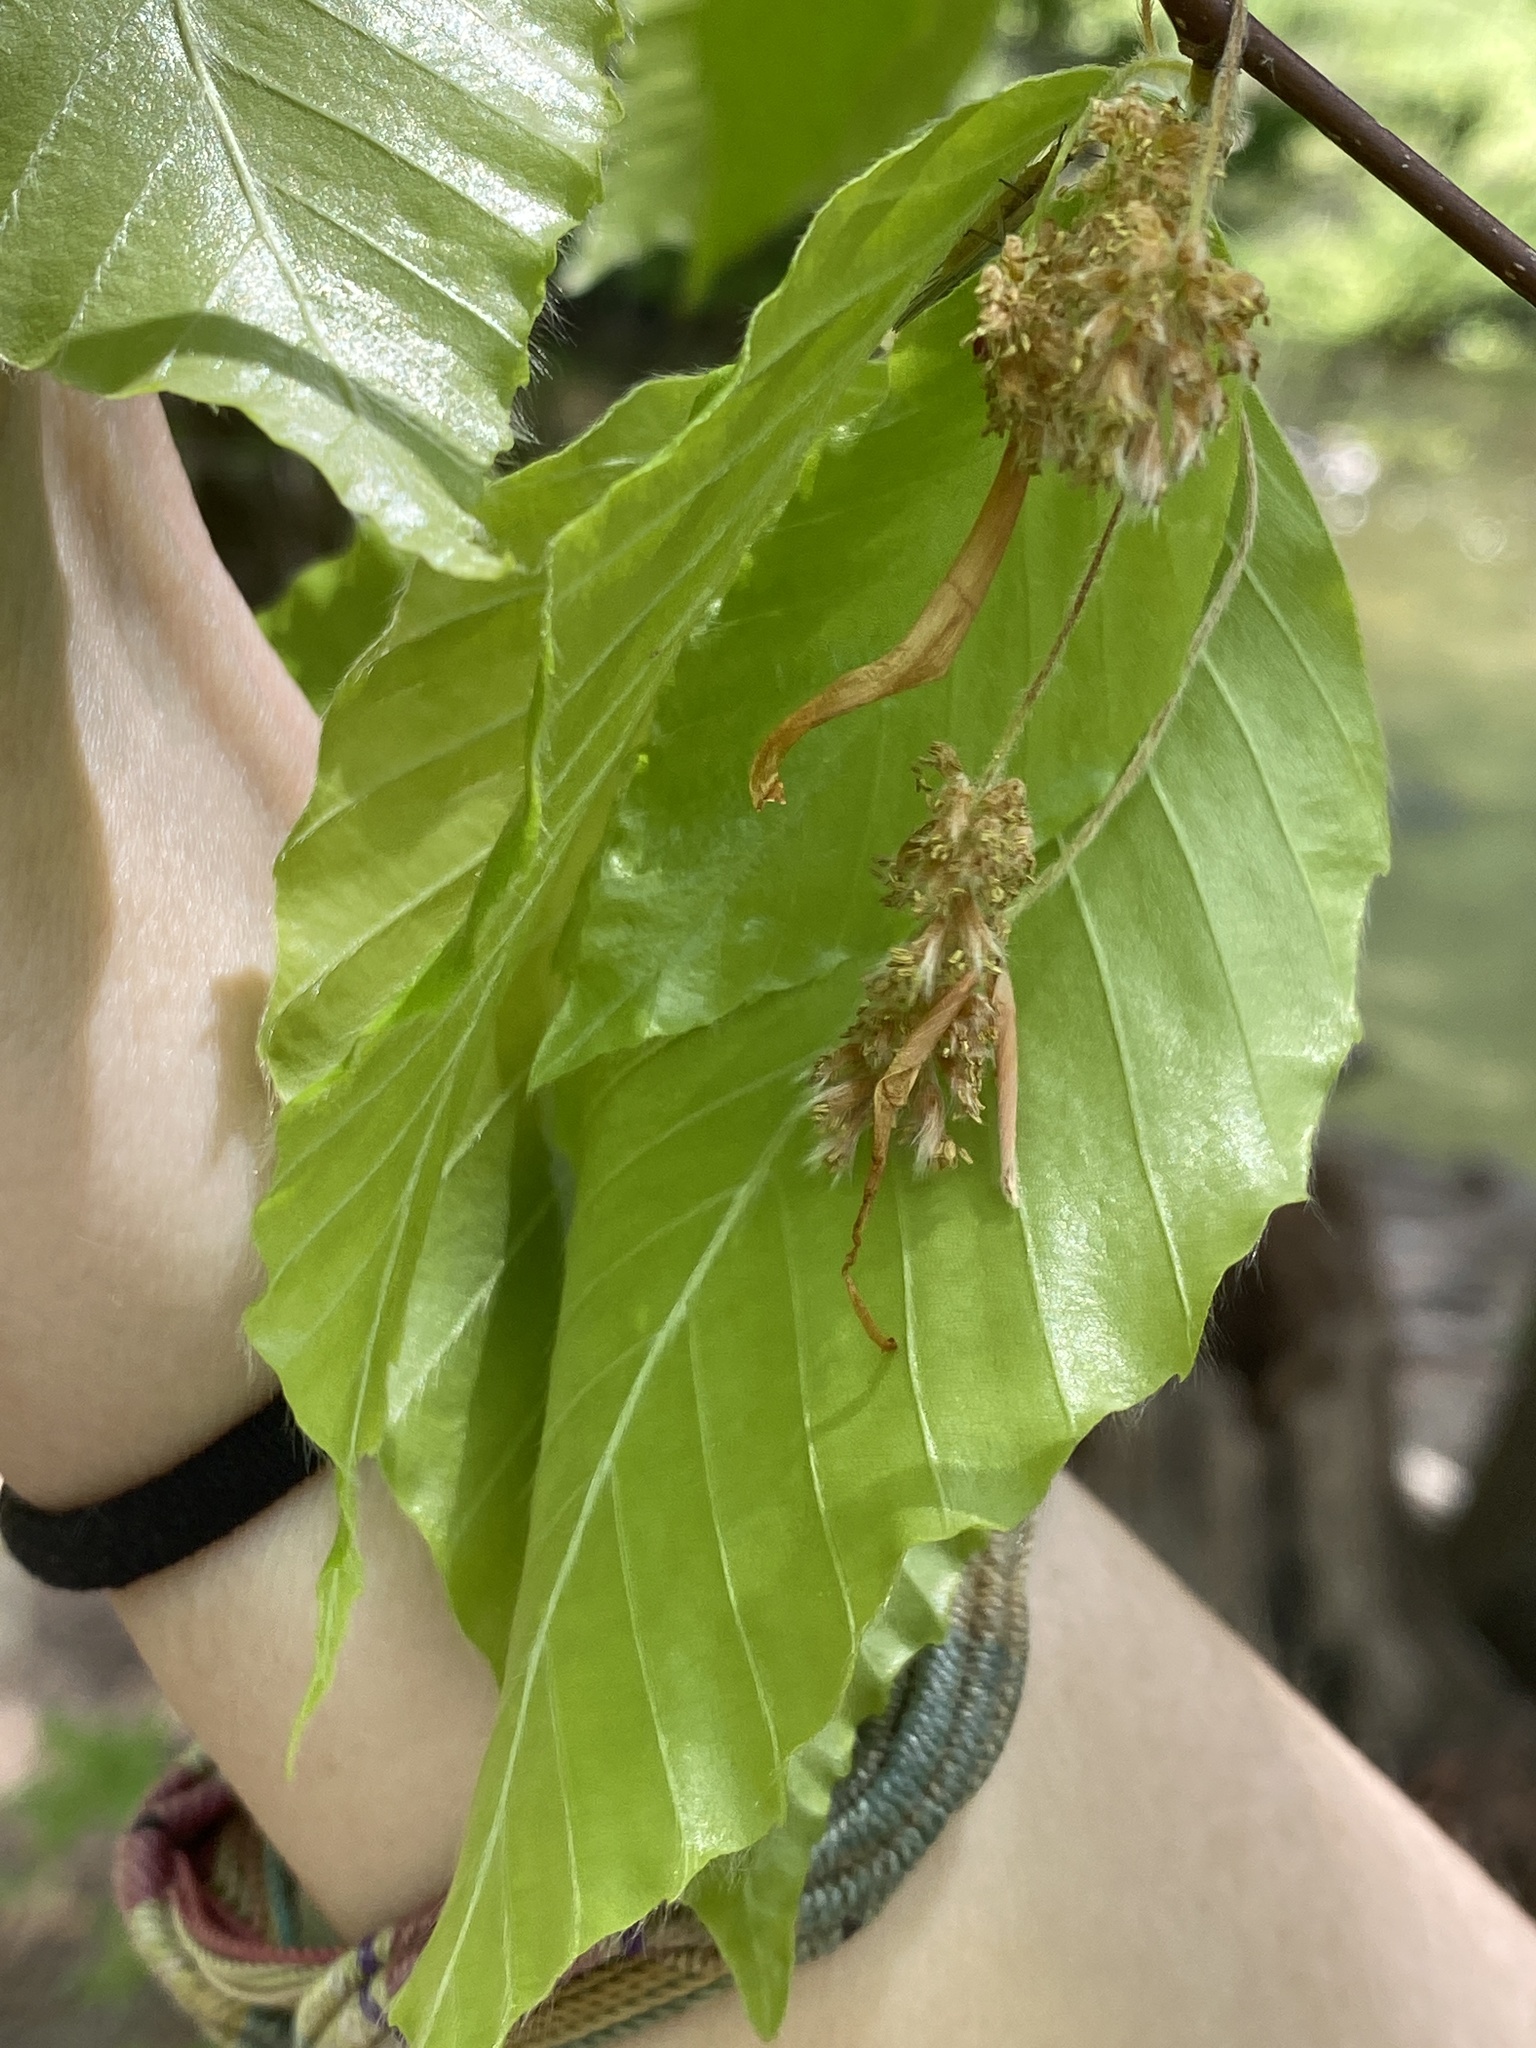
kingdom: Plantae
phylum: Tracheophyta
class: Magnoliopsida
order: Fagales
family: Fagaceae
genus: Fagus
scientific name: Fagus grandifolia
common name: American beech
